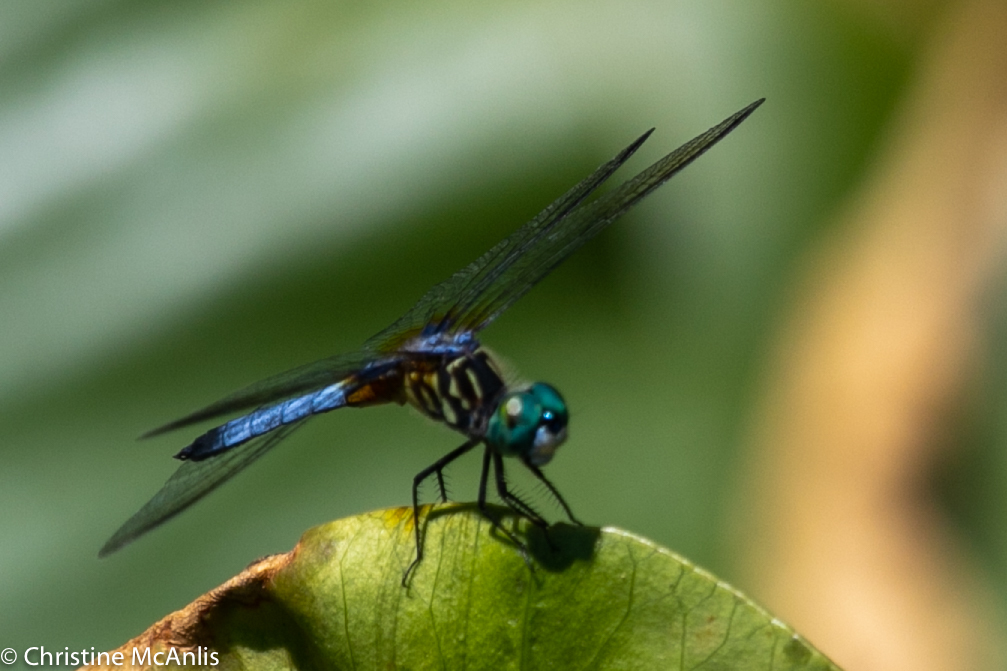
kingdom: Animalia
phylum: Arthropoda
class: Insecta
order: Odonata
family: Libellulidae
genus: Pachydiplax
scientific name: Pachydiplax longipennis
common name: Blue dasher
